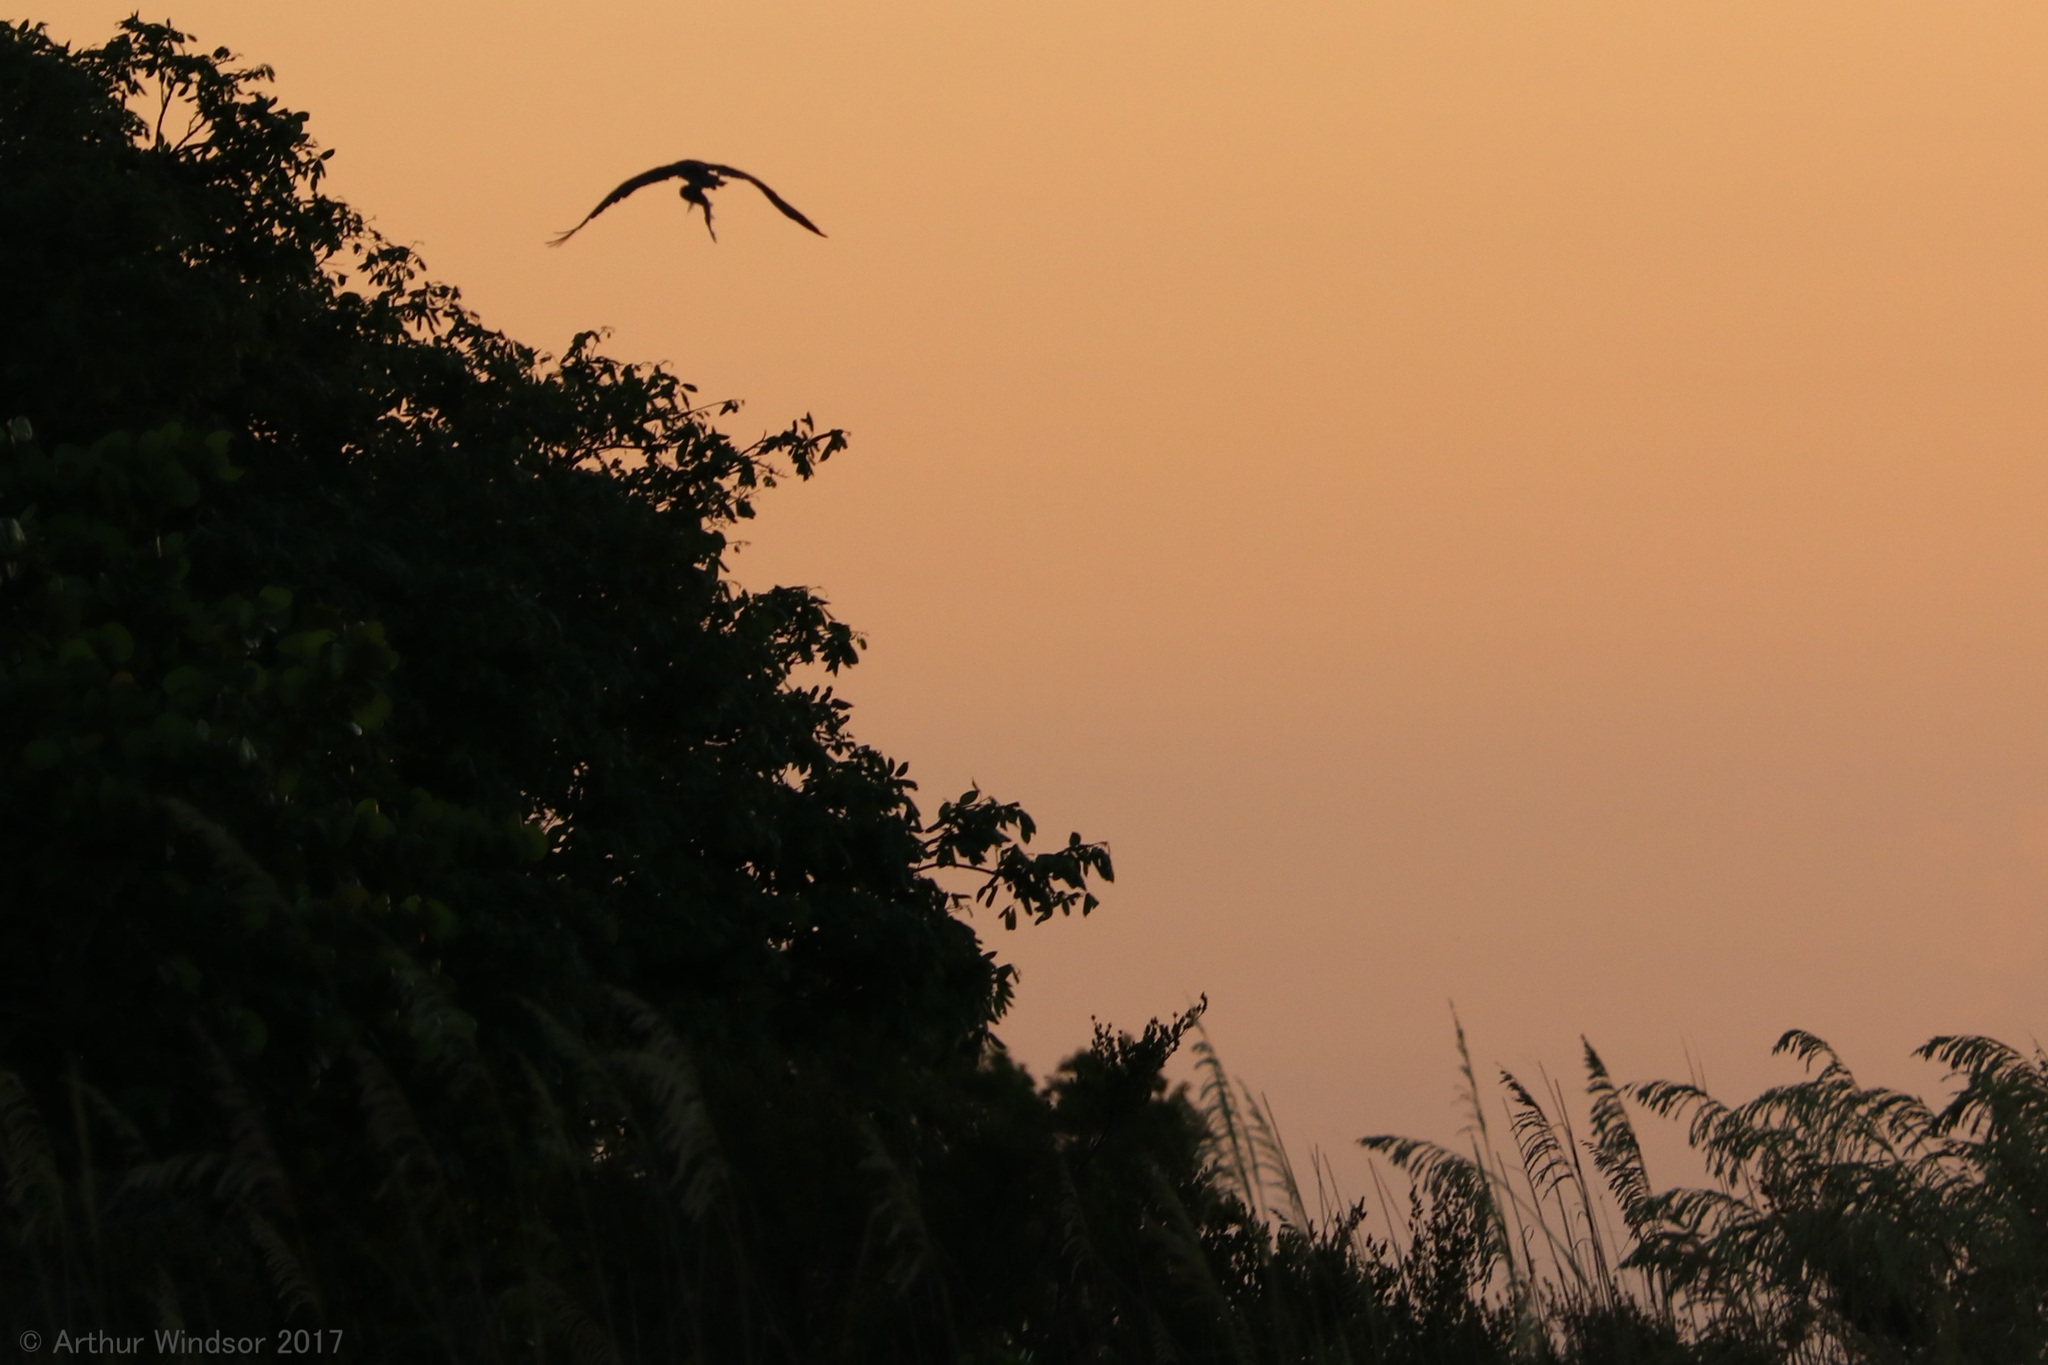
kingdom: Animalia
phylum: Chordata
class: Aves
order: Accipitriformes
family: Pandionidae
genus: Pandion
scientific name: Pandion haliaetus
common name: Osprey
